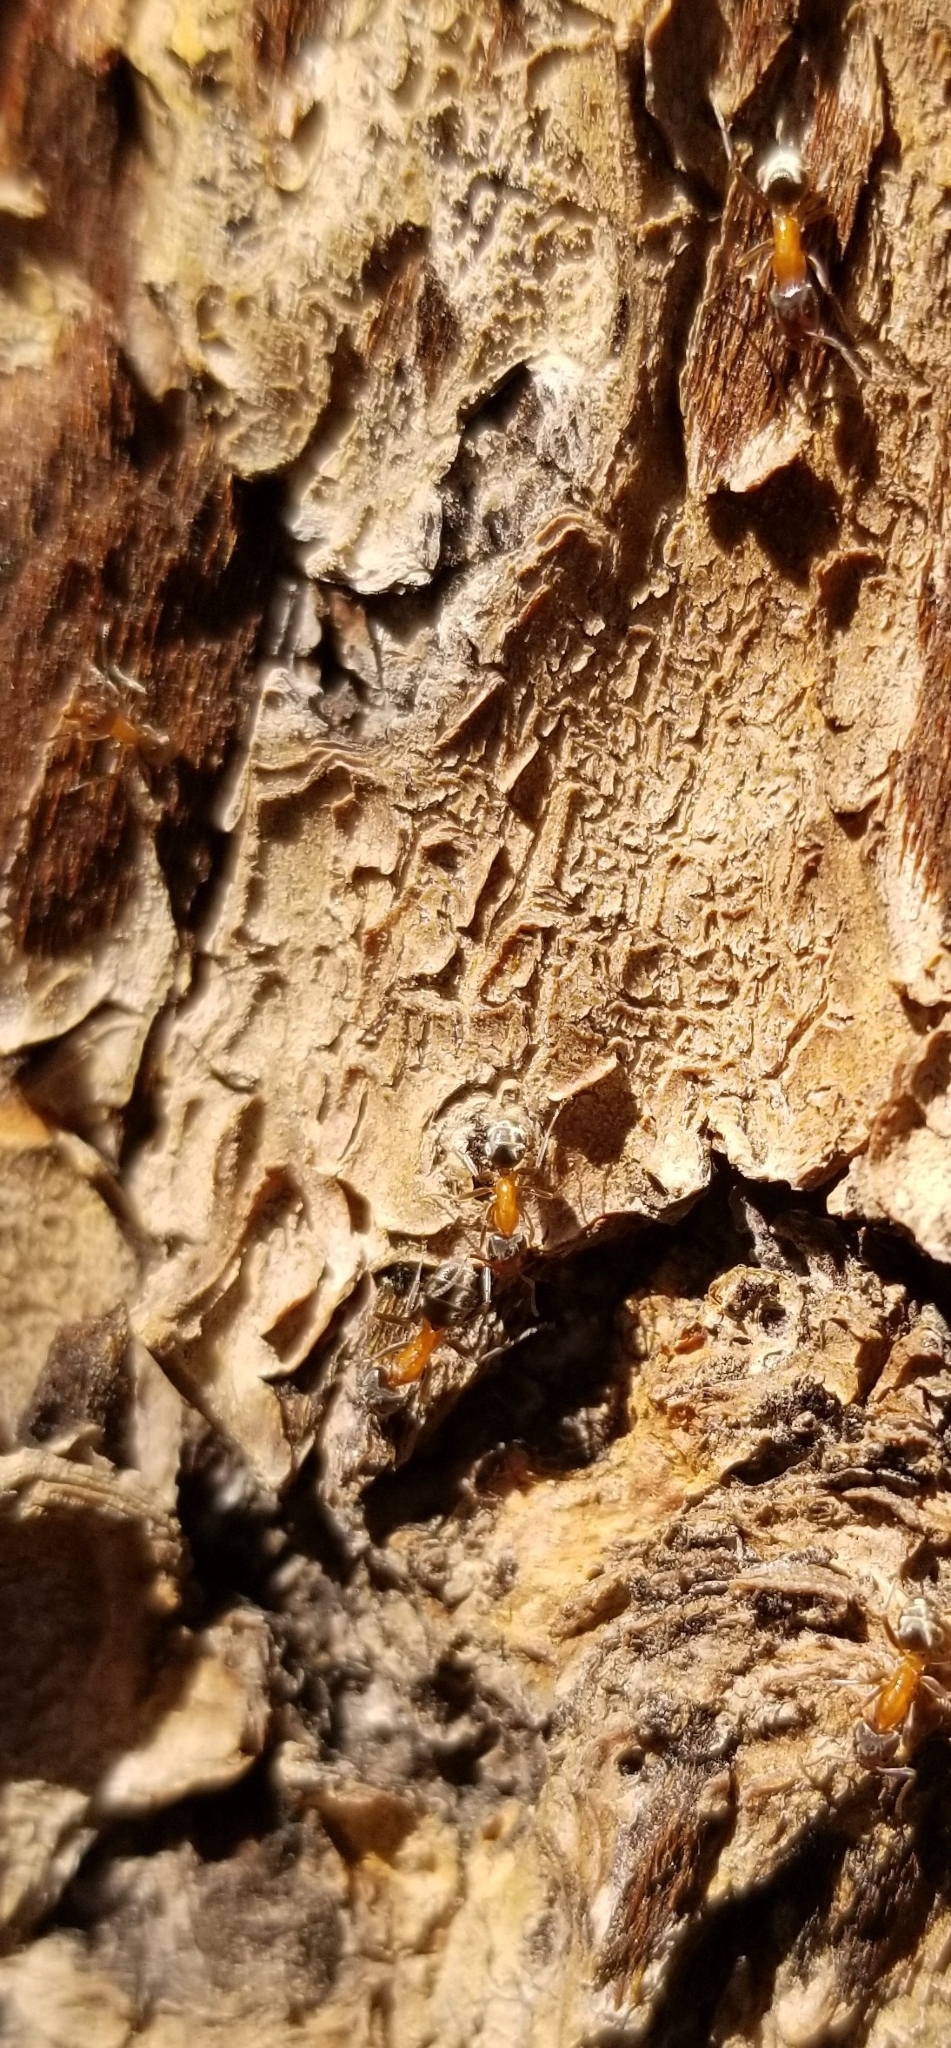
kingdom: Animalia
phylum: Arthropoda
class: Insecta
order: Hymenoptera
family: Formicidae
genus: Liometopum
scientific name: Liometopum occidentale
